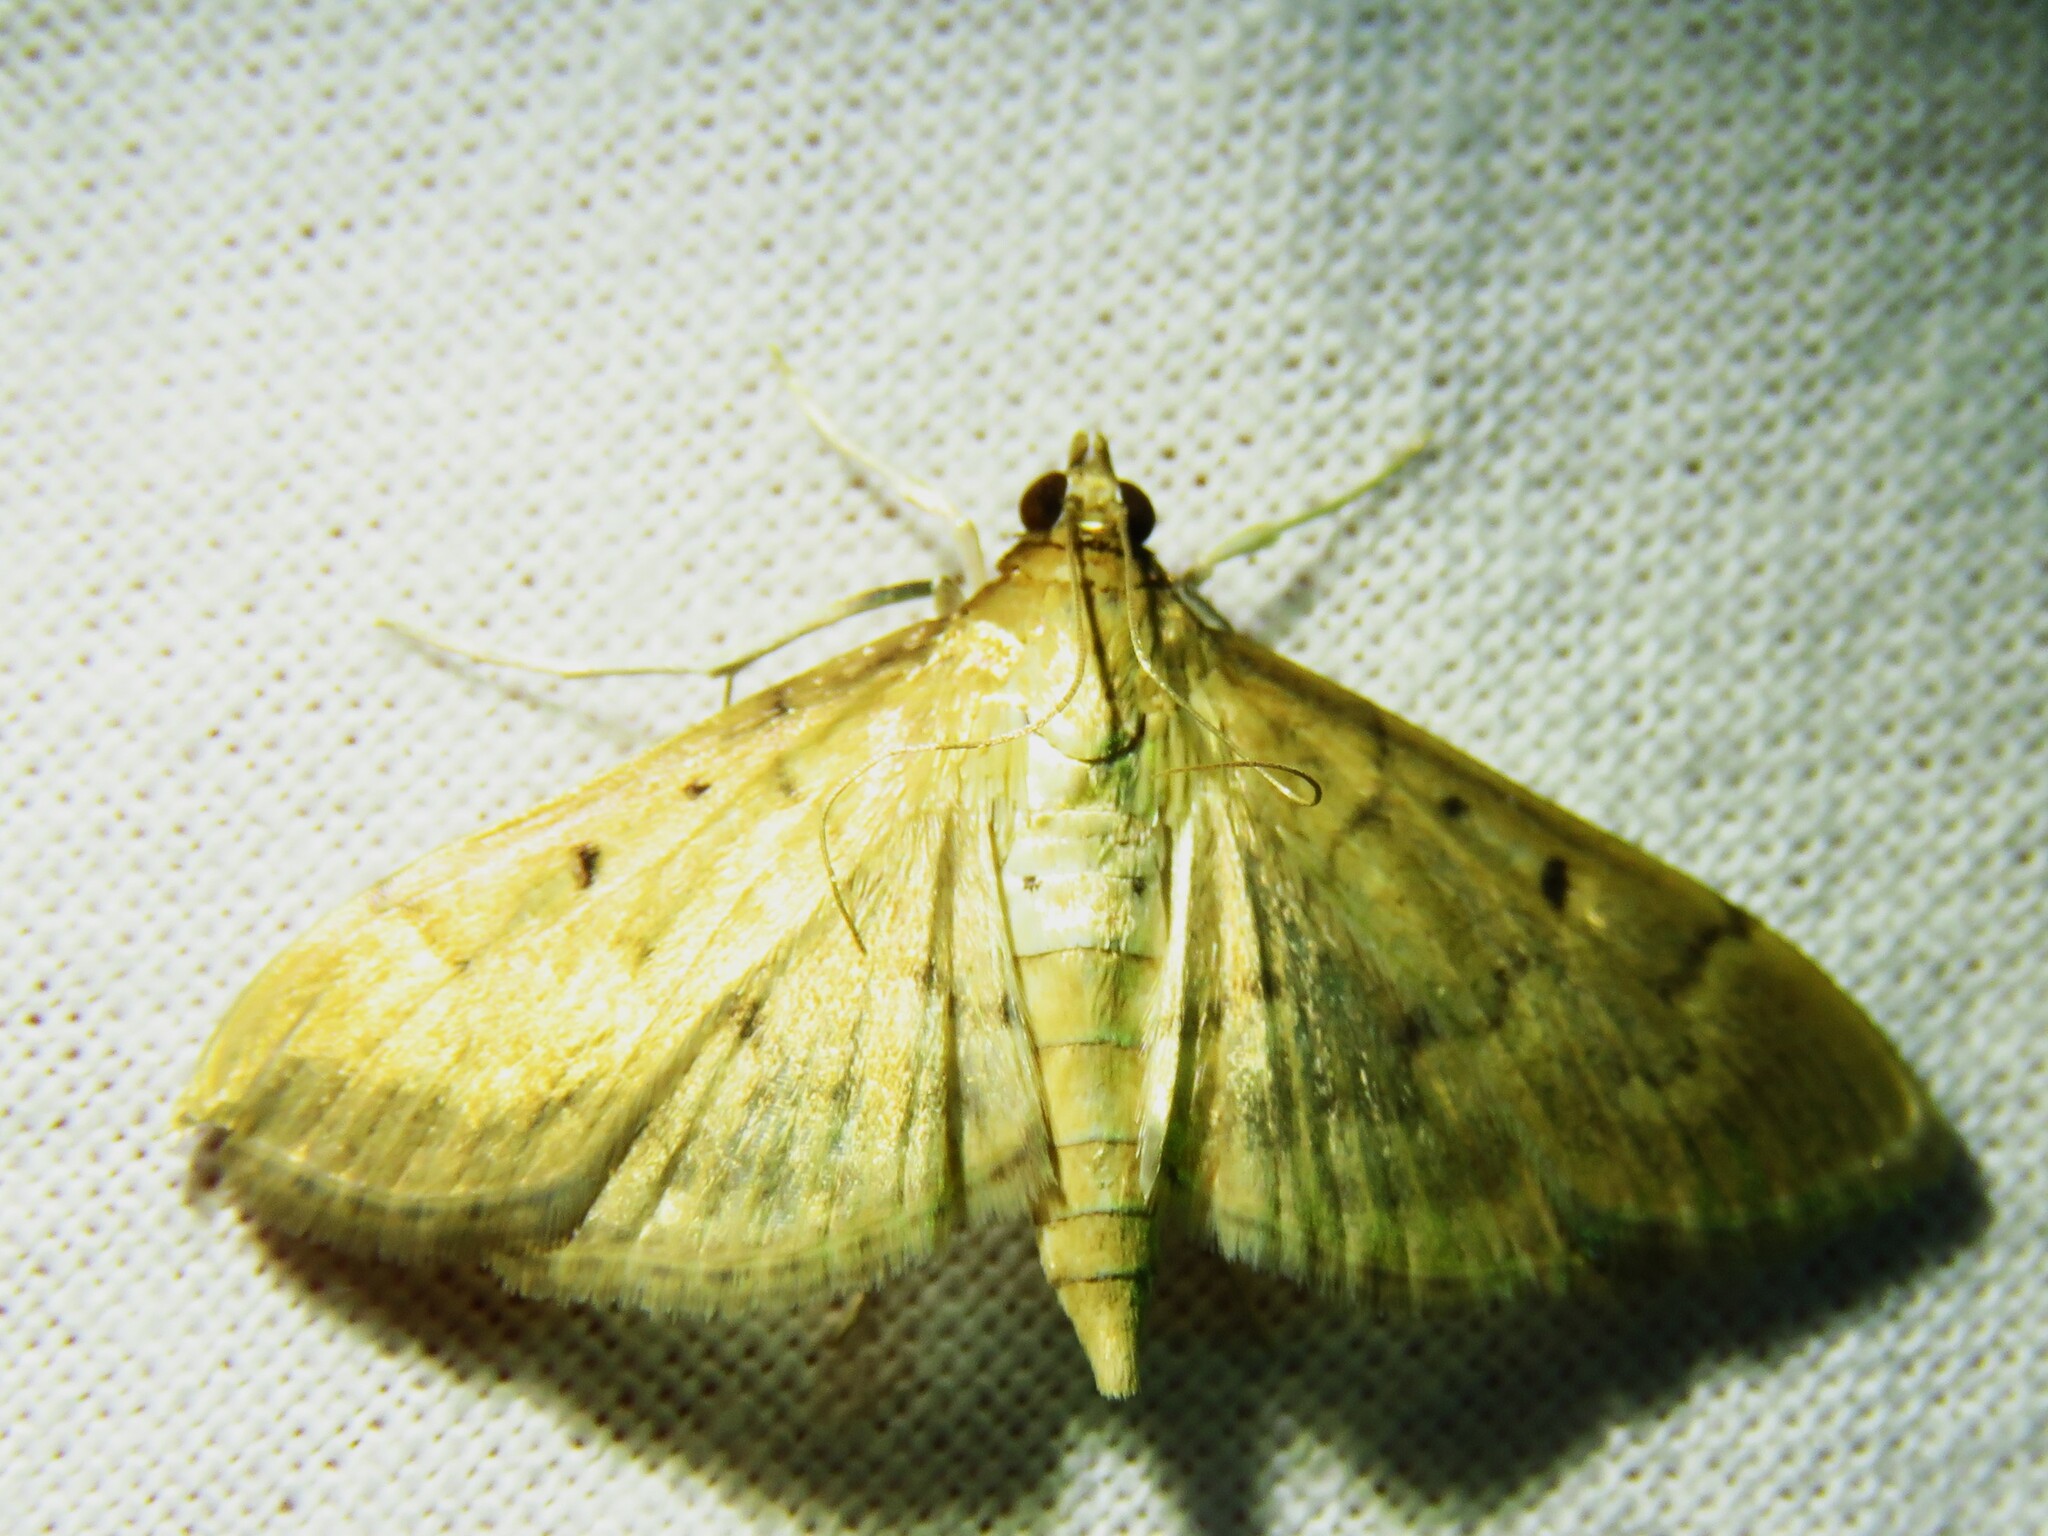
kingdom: Animalia
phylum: Arthropoda
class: Insecta
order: Lepidoptera
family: Crambidae
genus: Herpetogramma
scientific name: Herpetogramma bipunctalis
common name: Southern beet webworm
